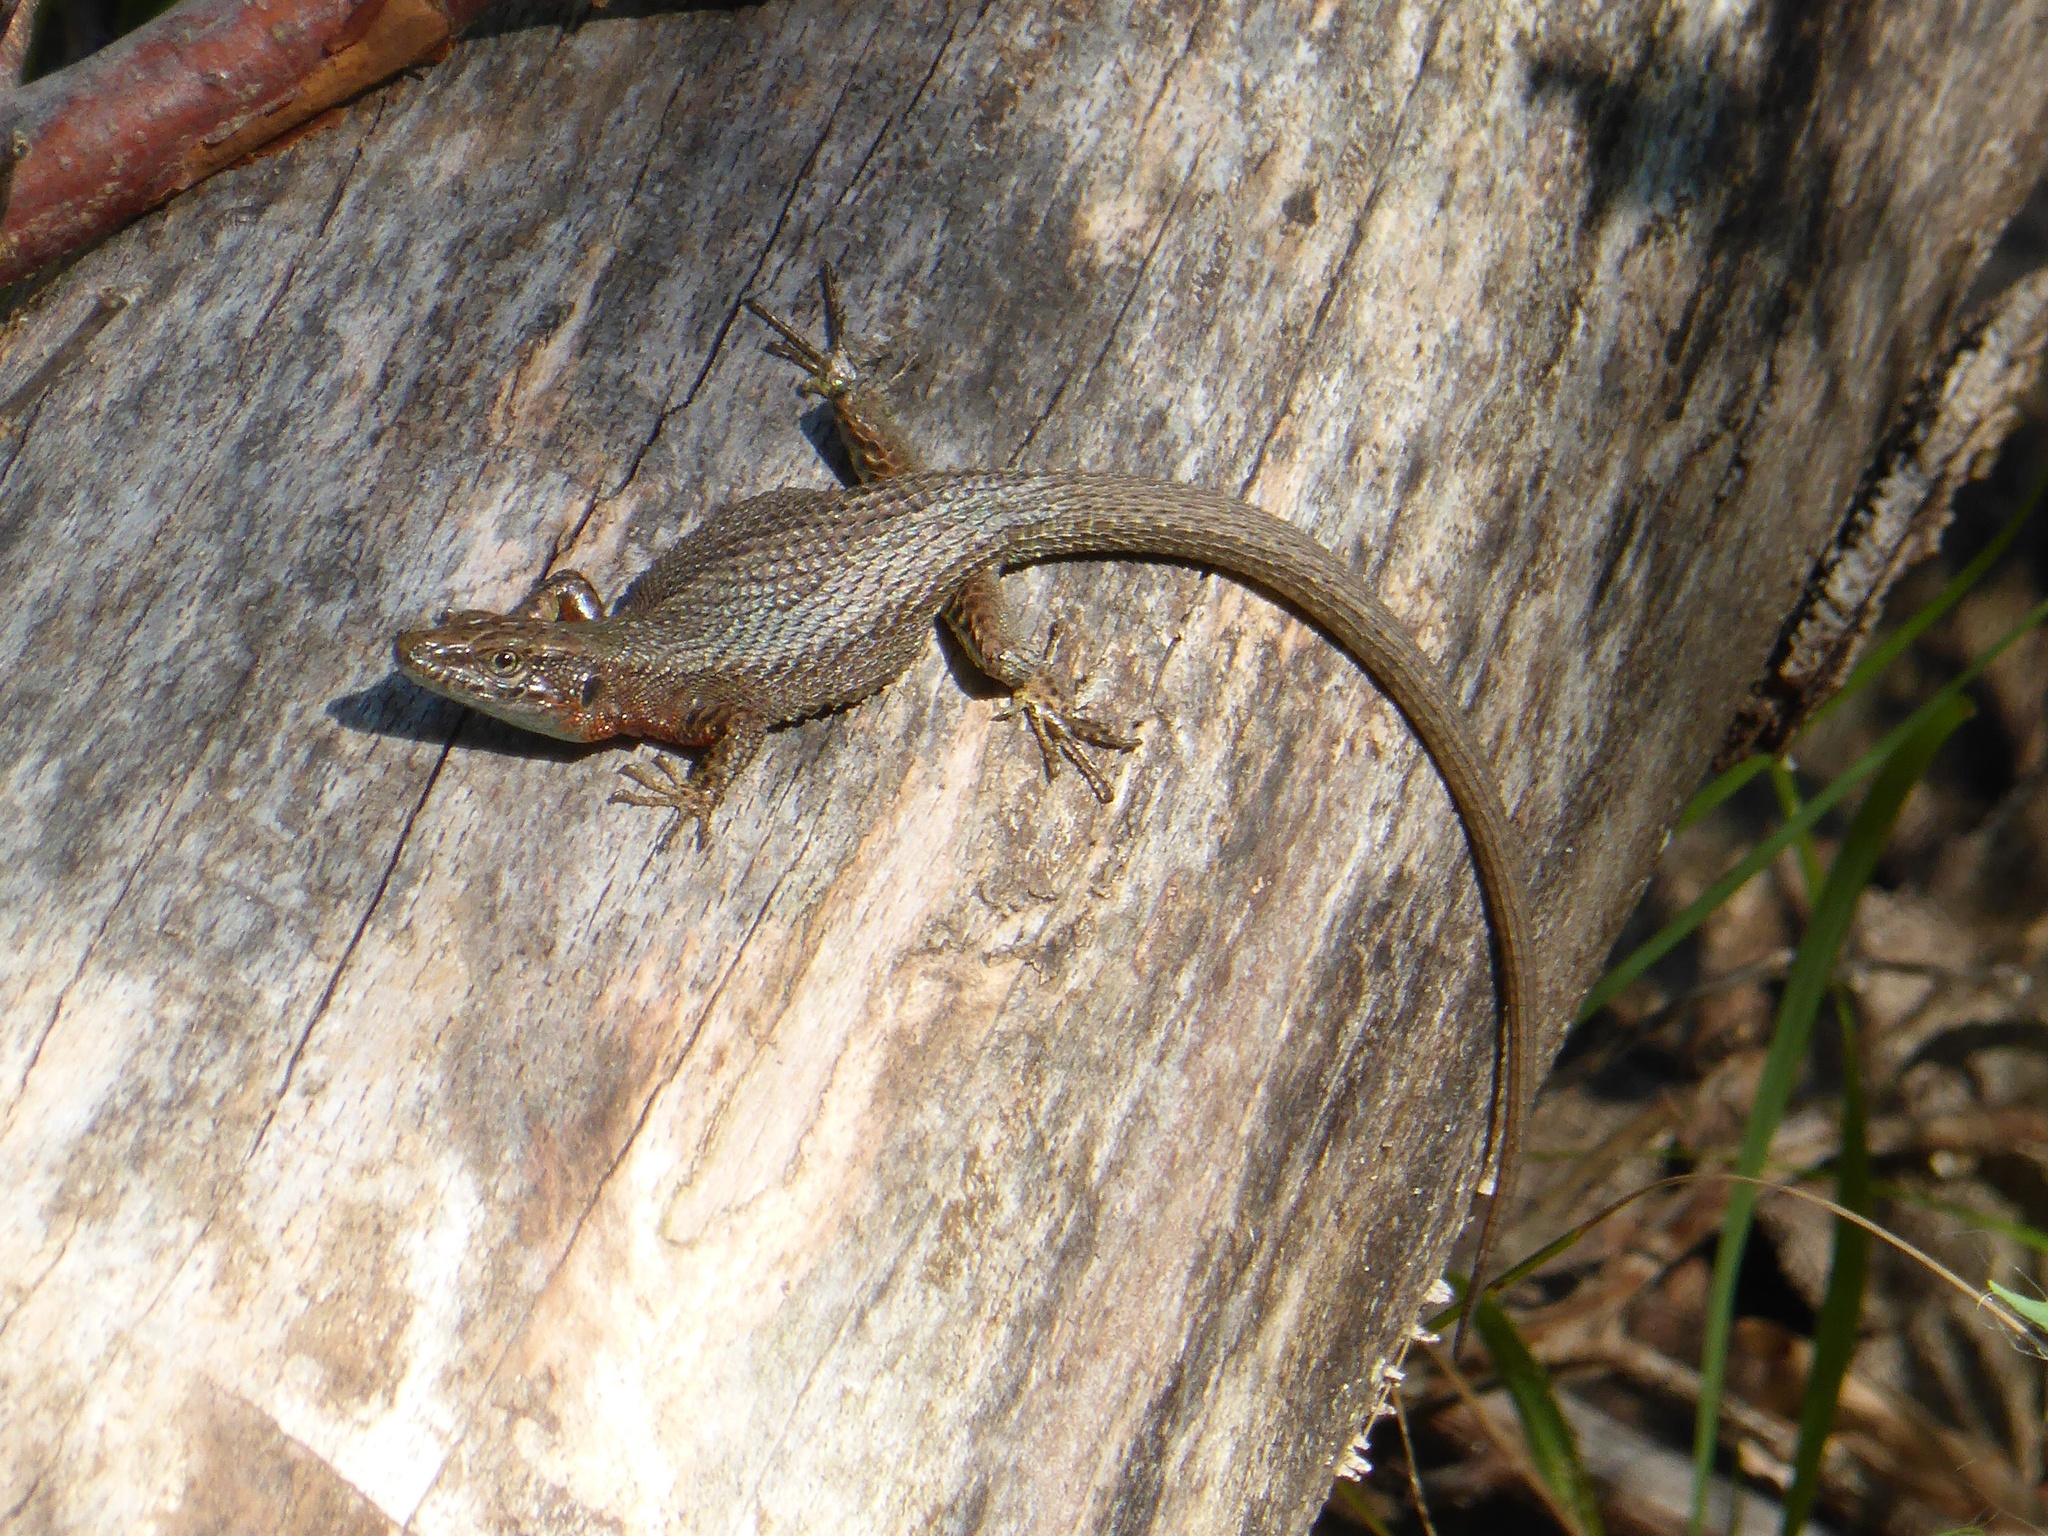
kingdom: Animalia
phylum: Chordata
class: Squamata
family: Lacertidae
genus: Algyroides
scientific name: Algyroides nigropunctatus
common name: Blue-throated keeled lizard
